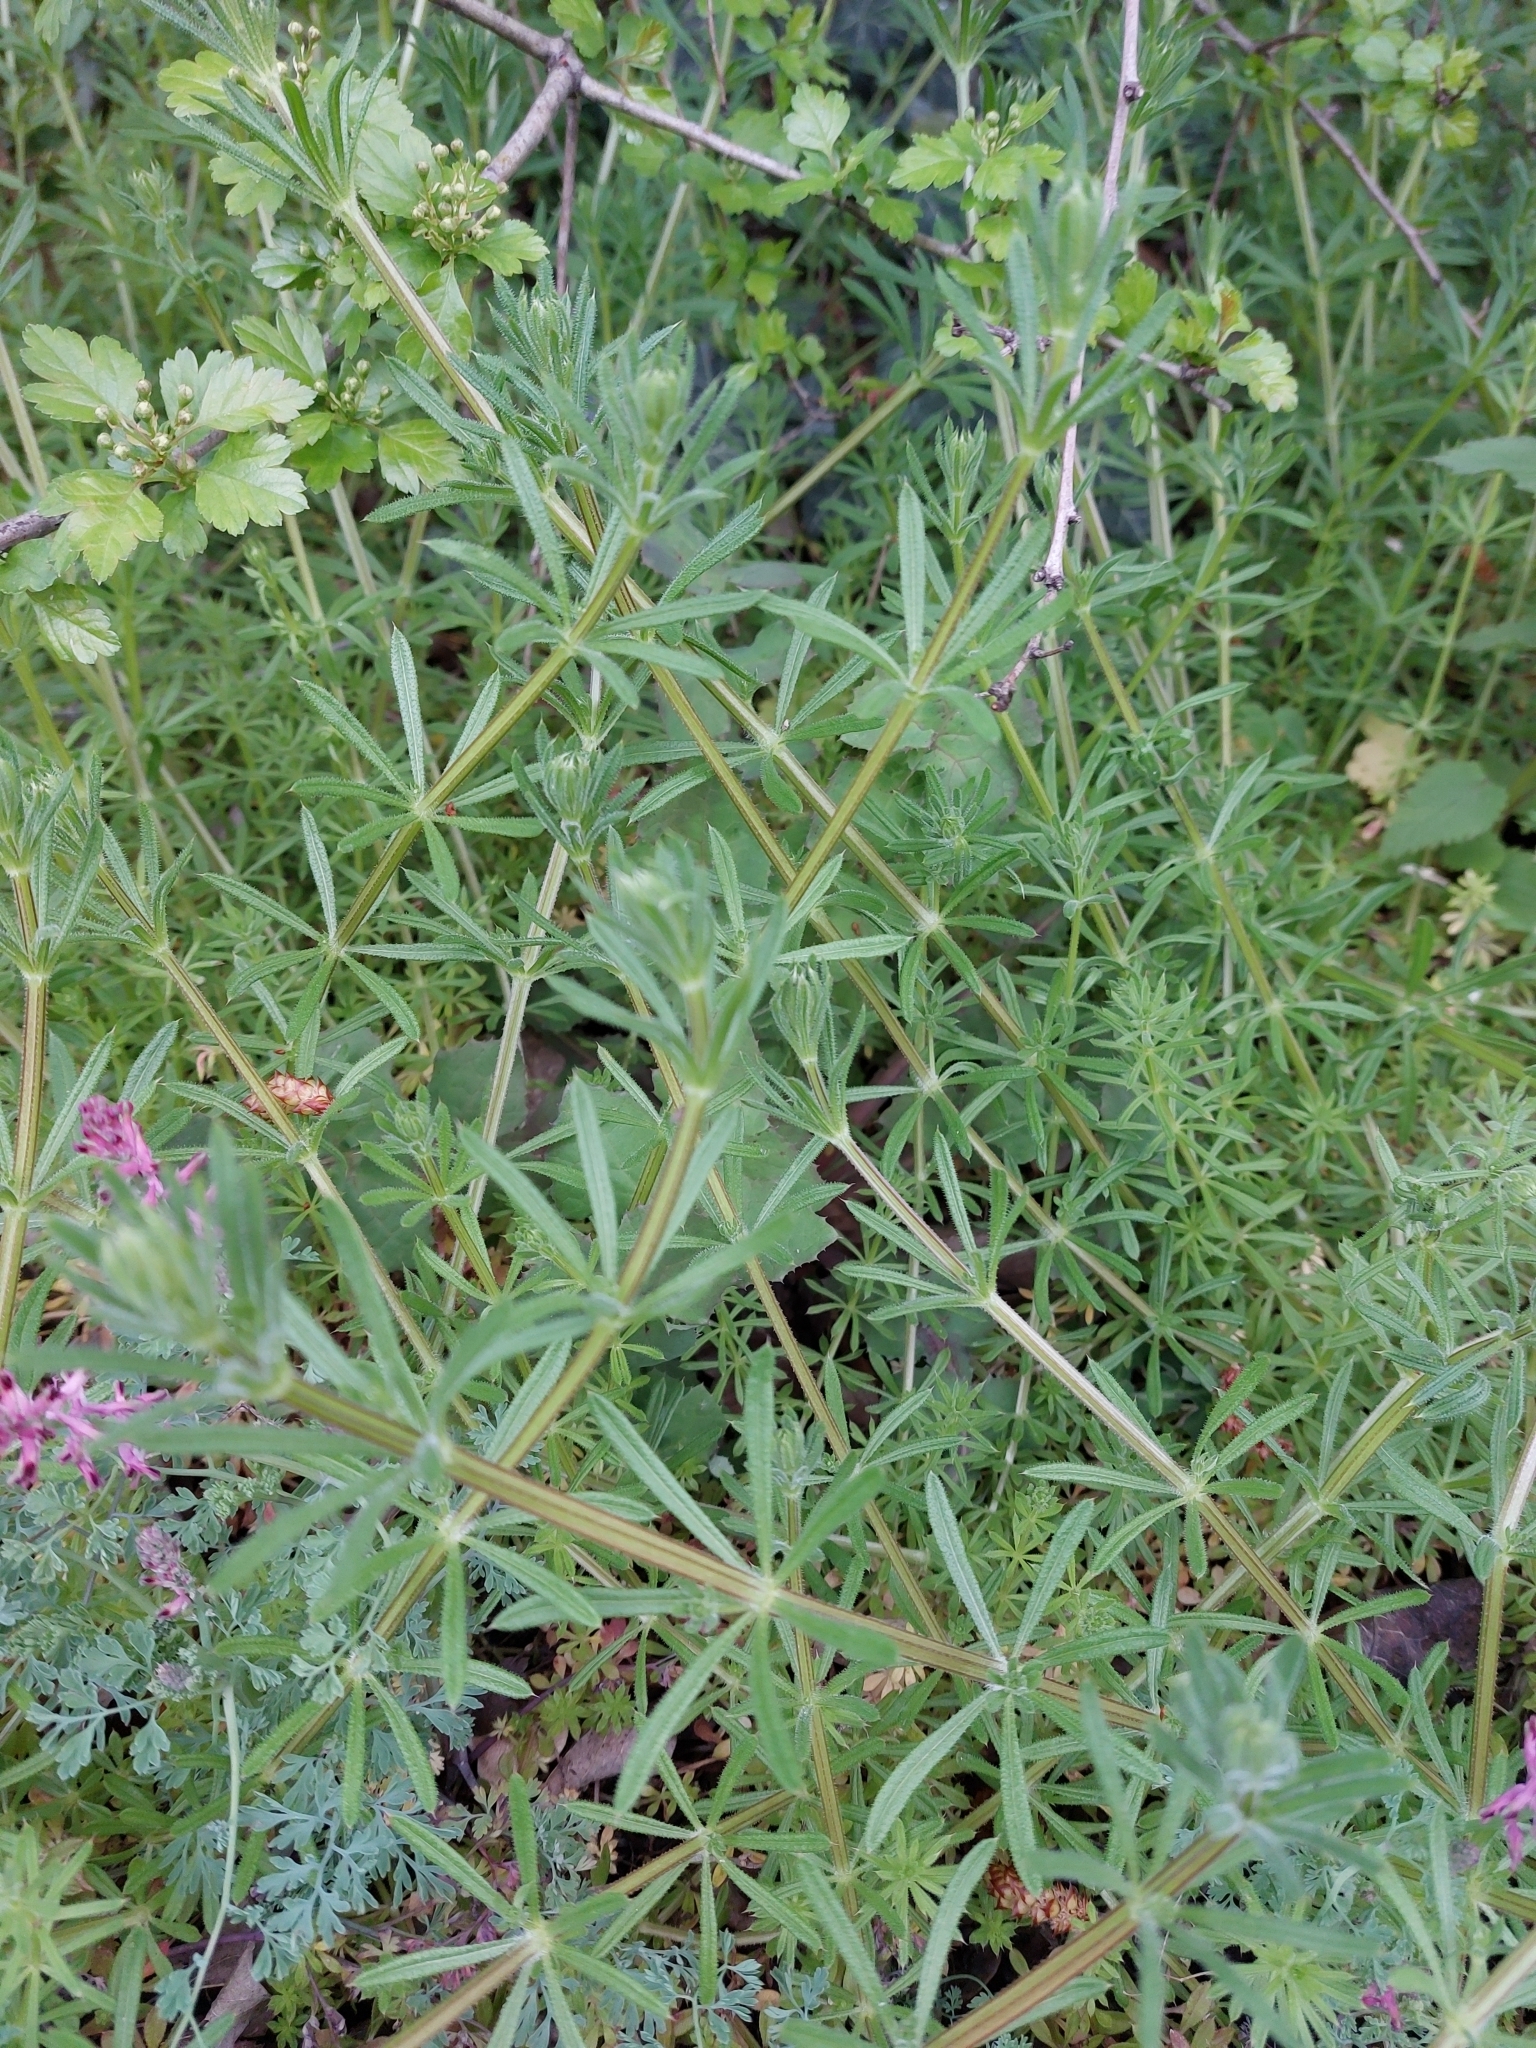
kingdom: Plantae
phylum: Tracheophyta
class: Magnoliopsida
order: Gentianales
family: Rubiaceae
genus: Galium
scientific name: Galium aparine
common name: Cleavers
